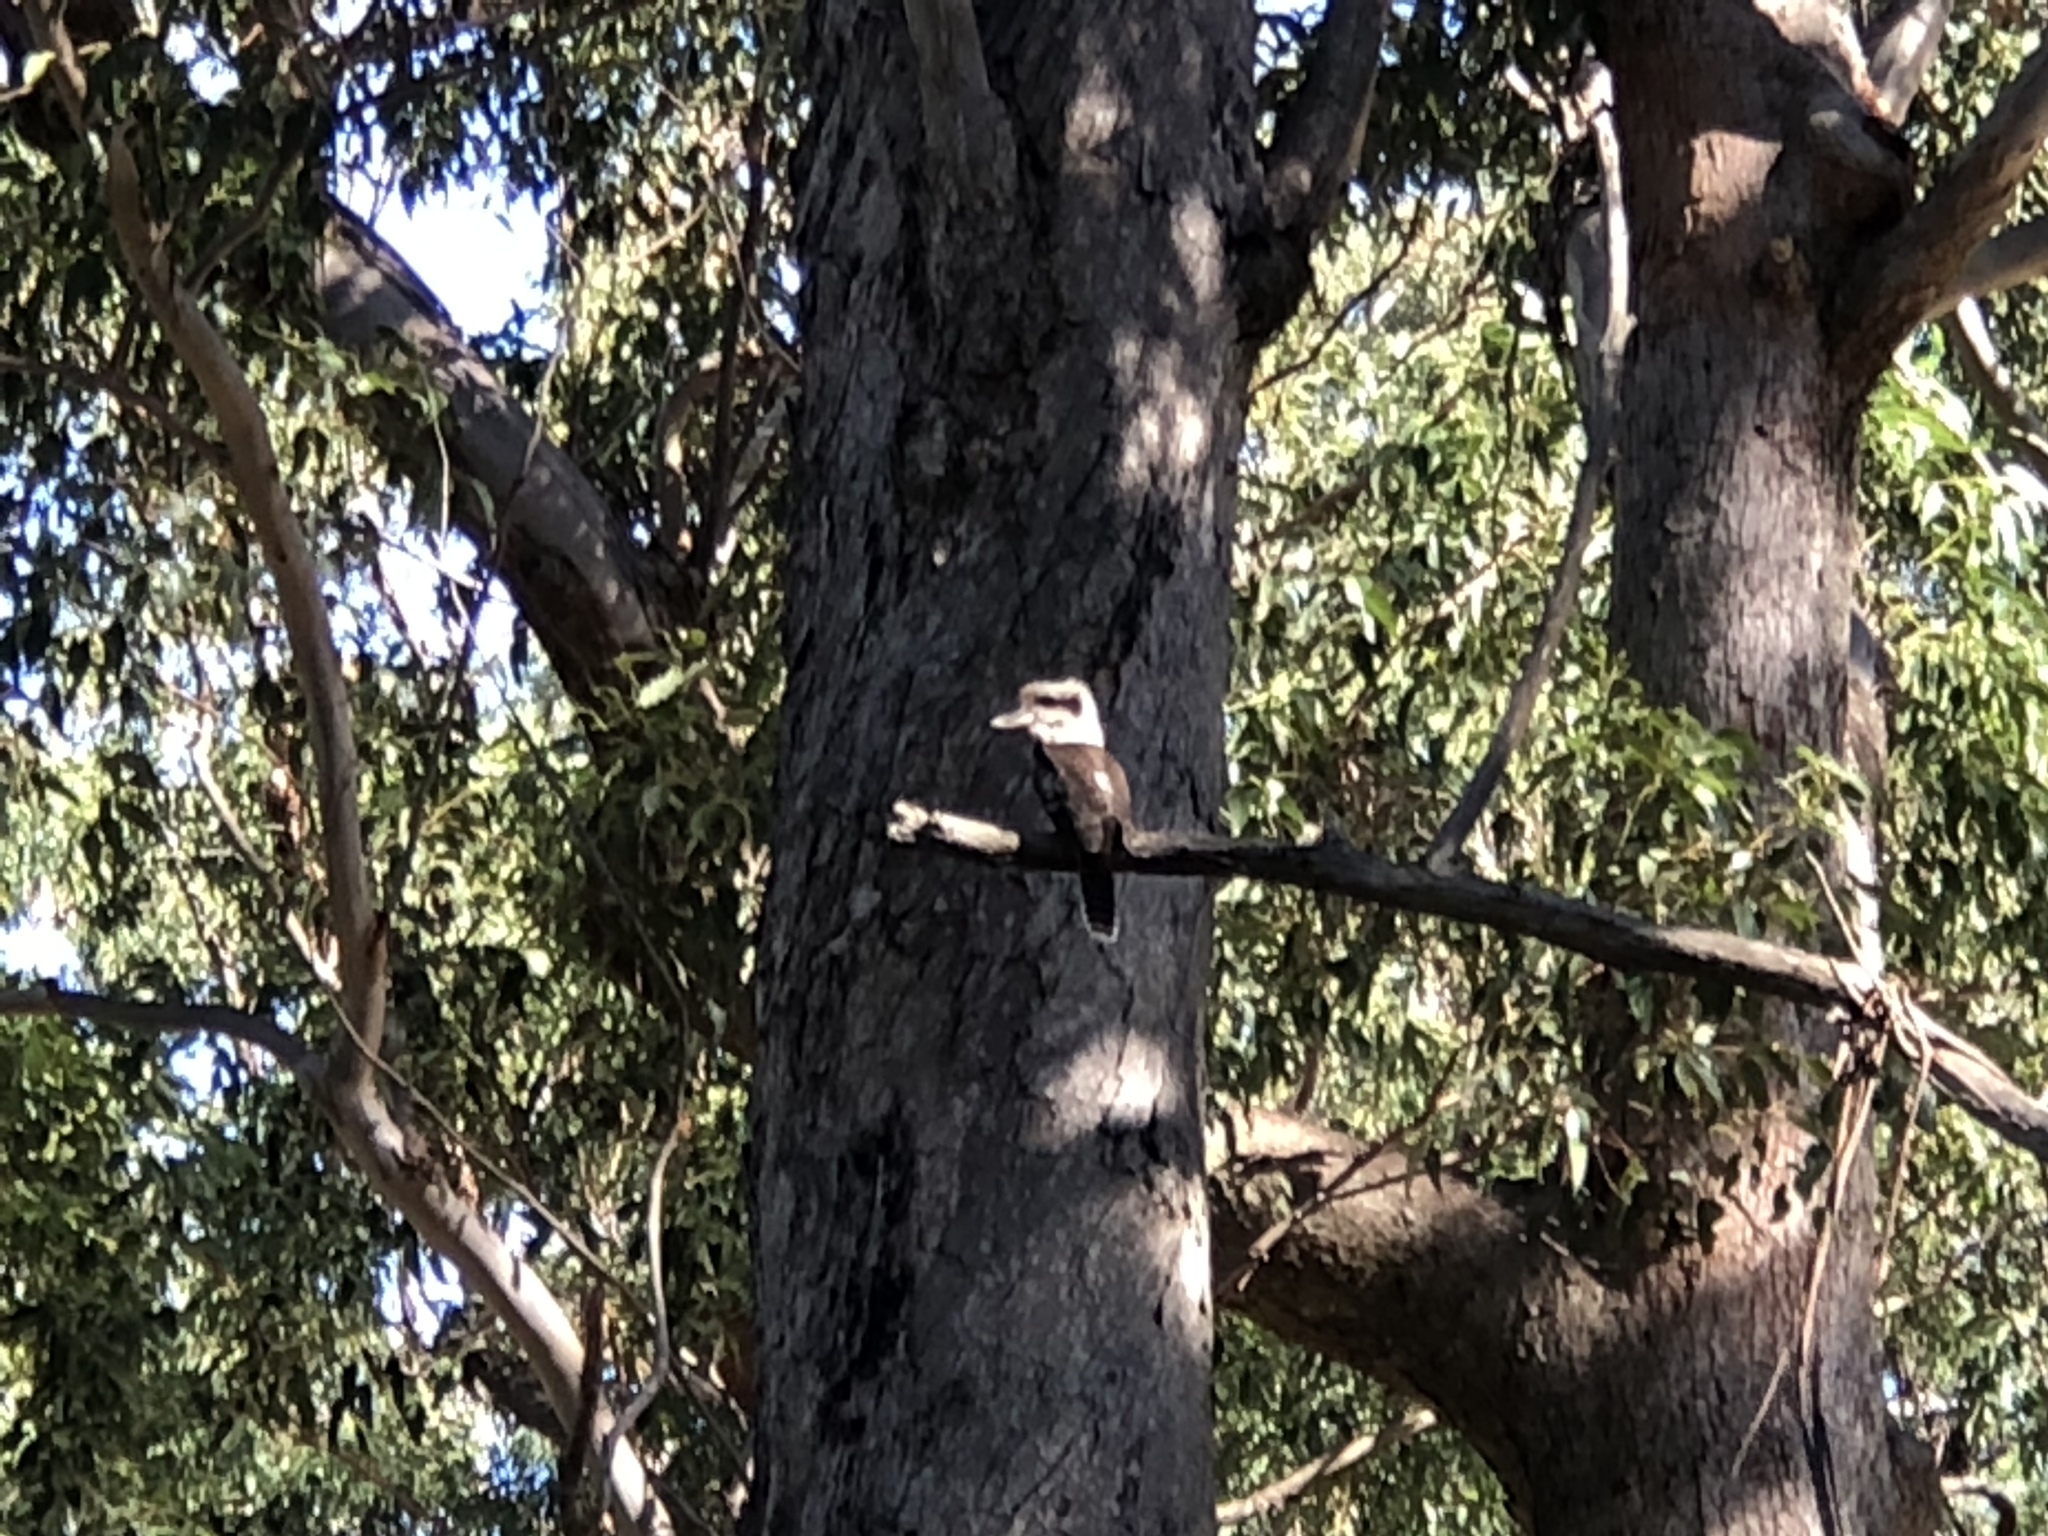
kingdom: Animalia
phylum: Chordata
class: Aves
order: Coraciiformes
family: Alcedinidae
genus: Dacelo
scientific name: Dacelo novaeguineae
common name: Laughing kookaburra
